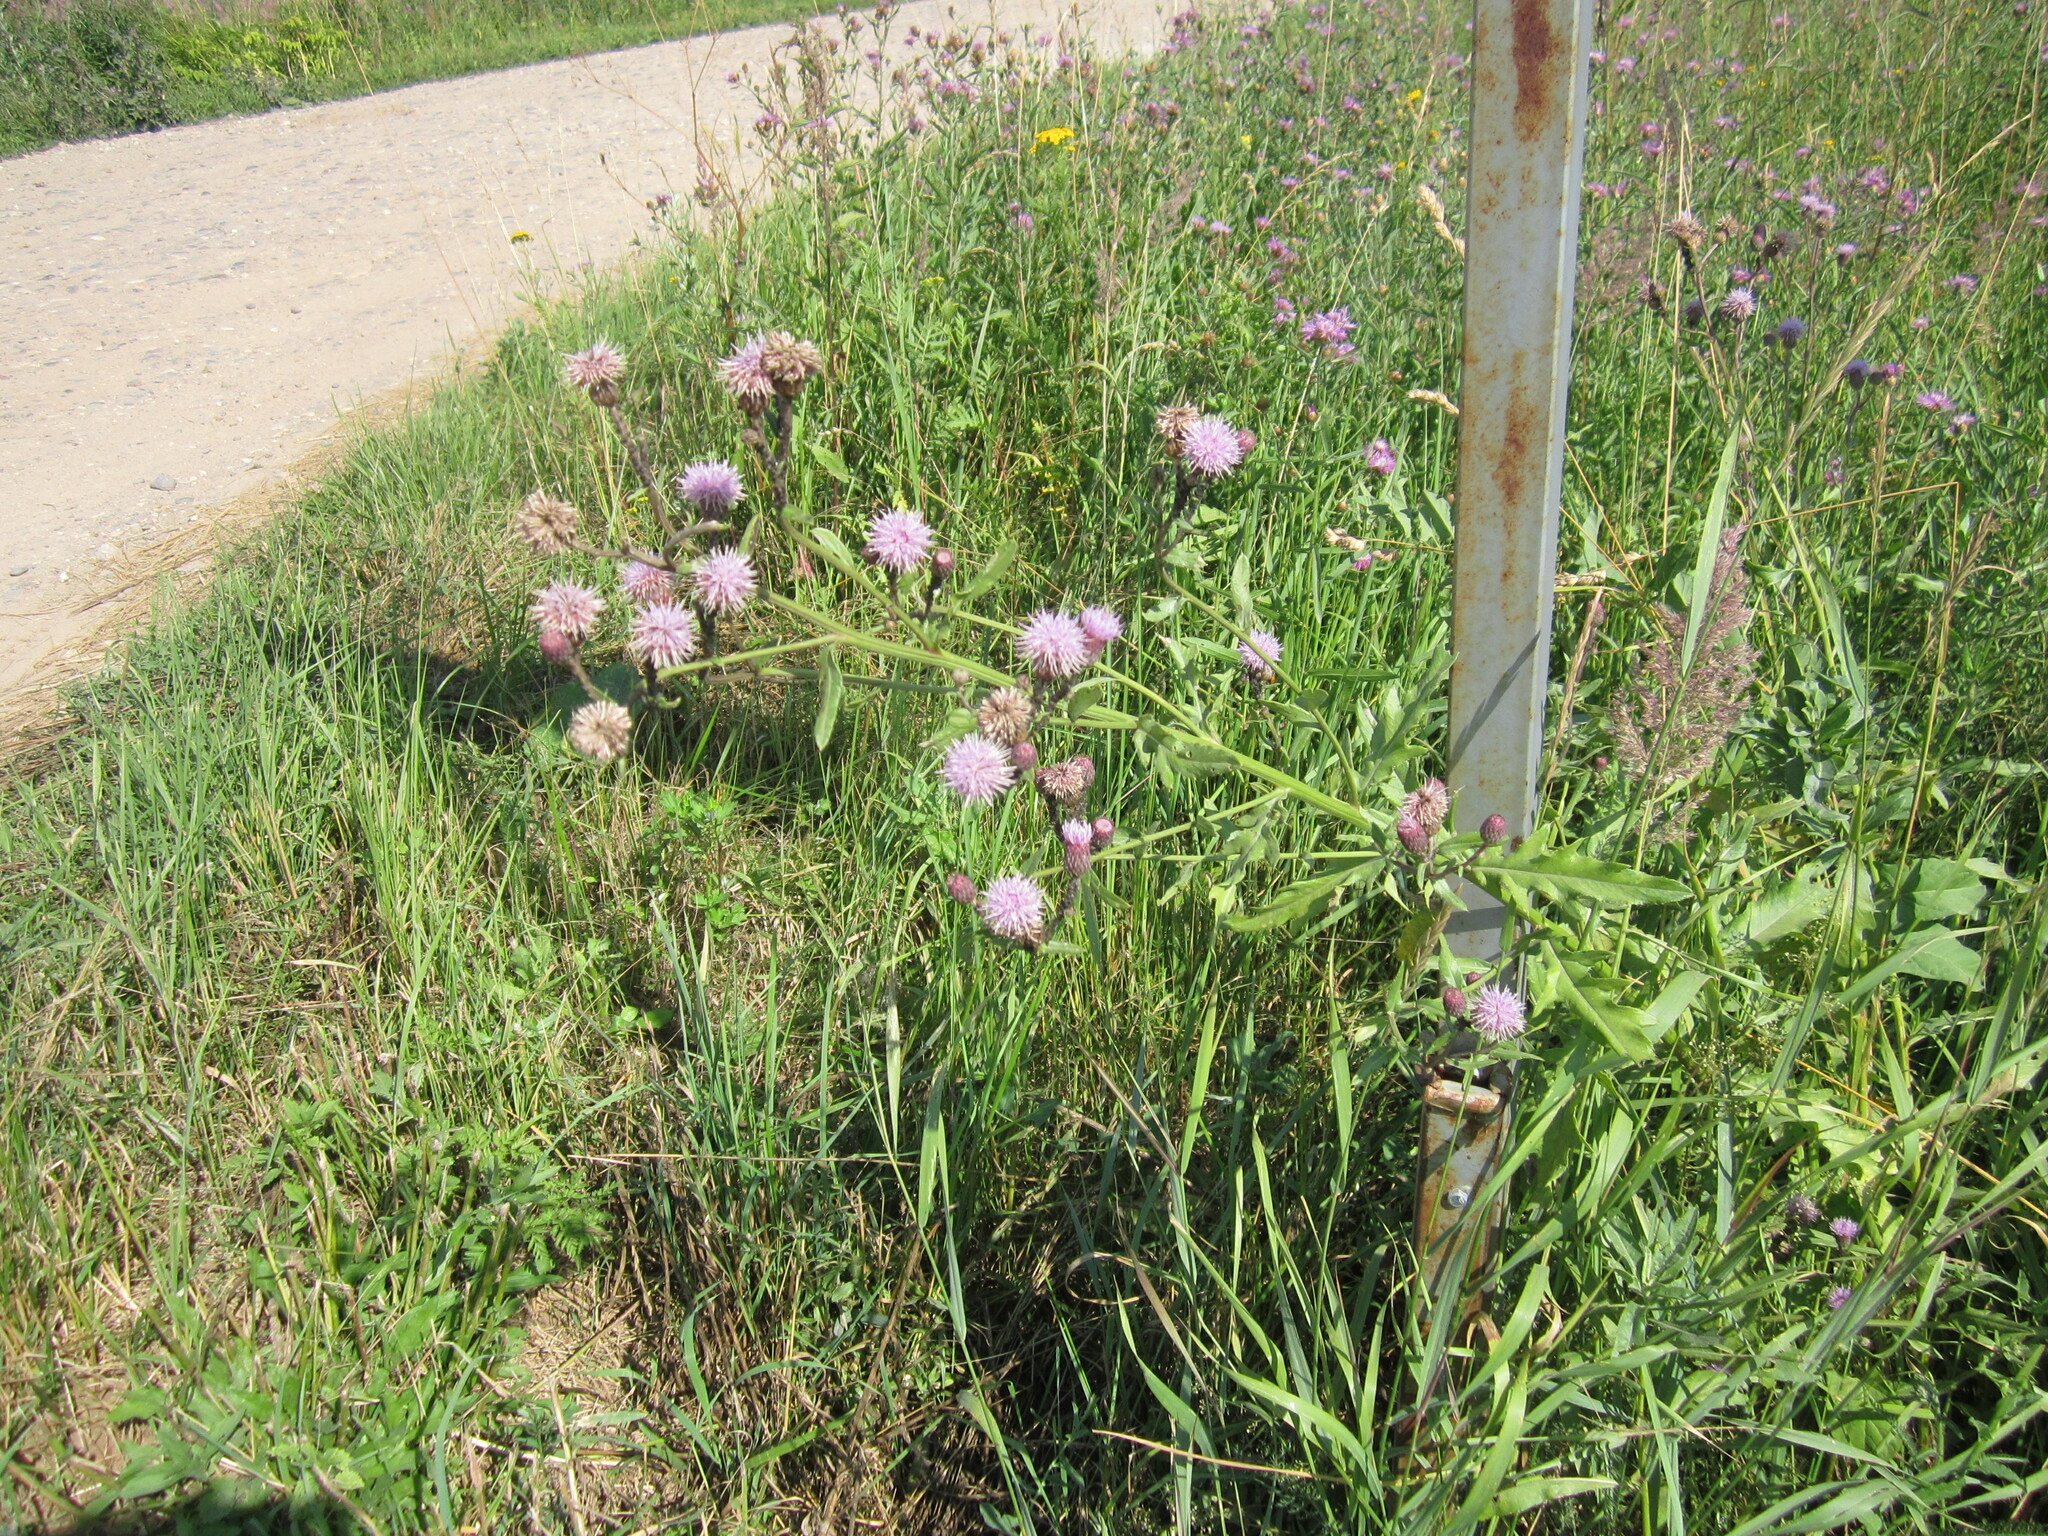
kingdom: Plantae
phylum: Tracheophyta
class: Magnoliopsida
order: Asterales
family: Asteraceae
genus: Cirsium
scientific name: Cirsium arvense
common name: Creeping thistle
